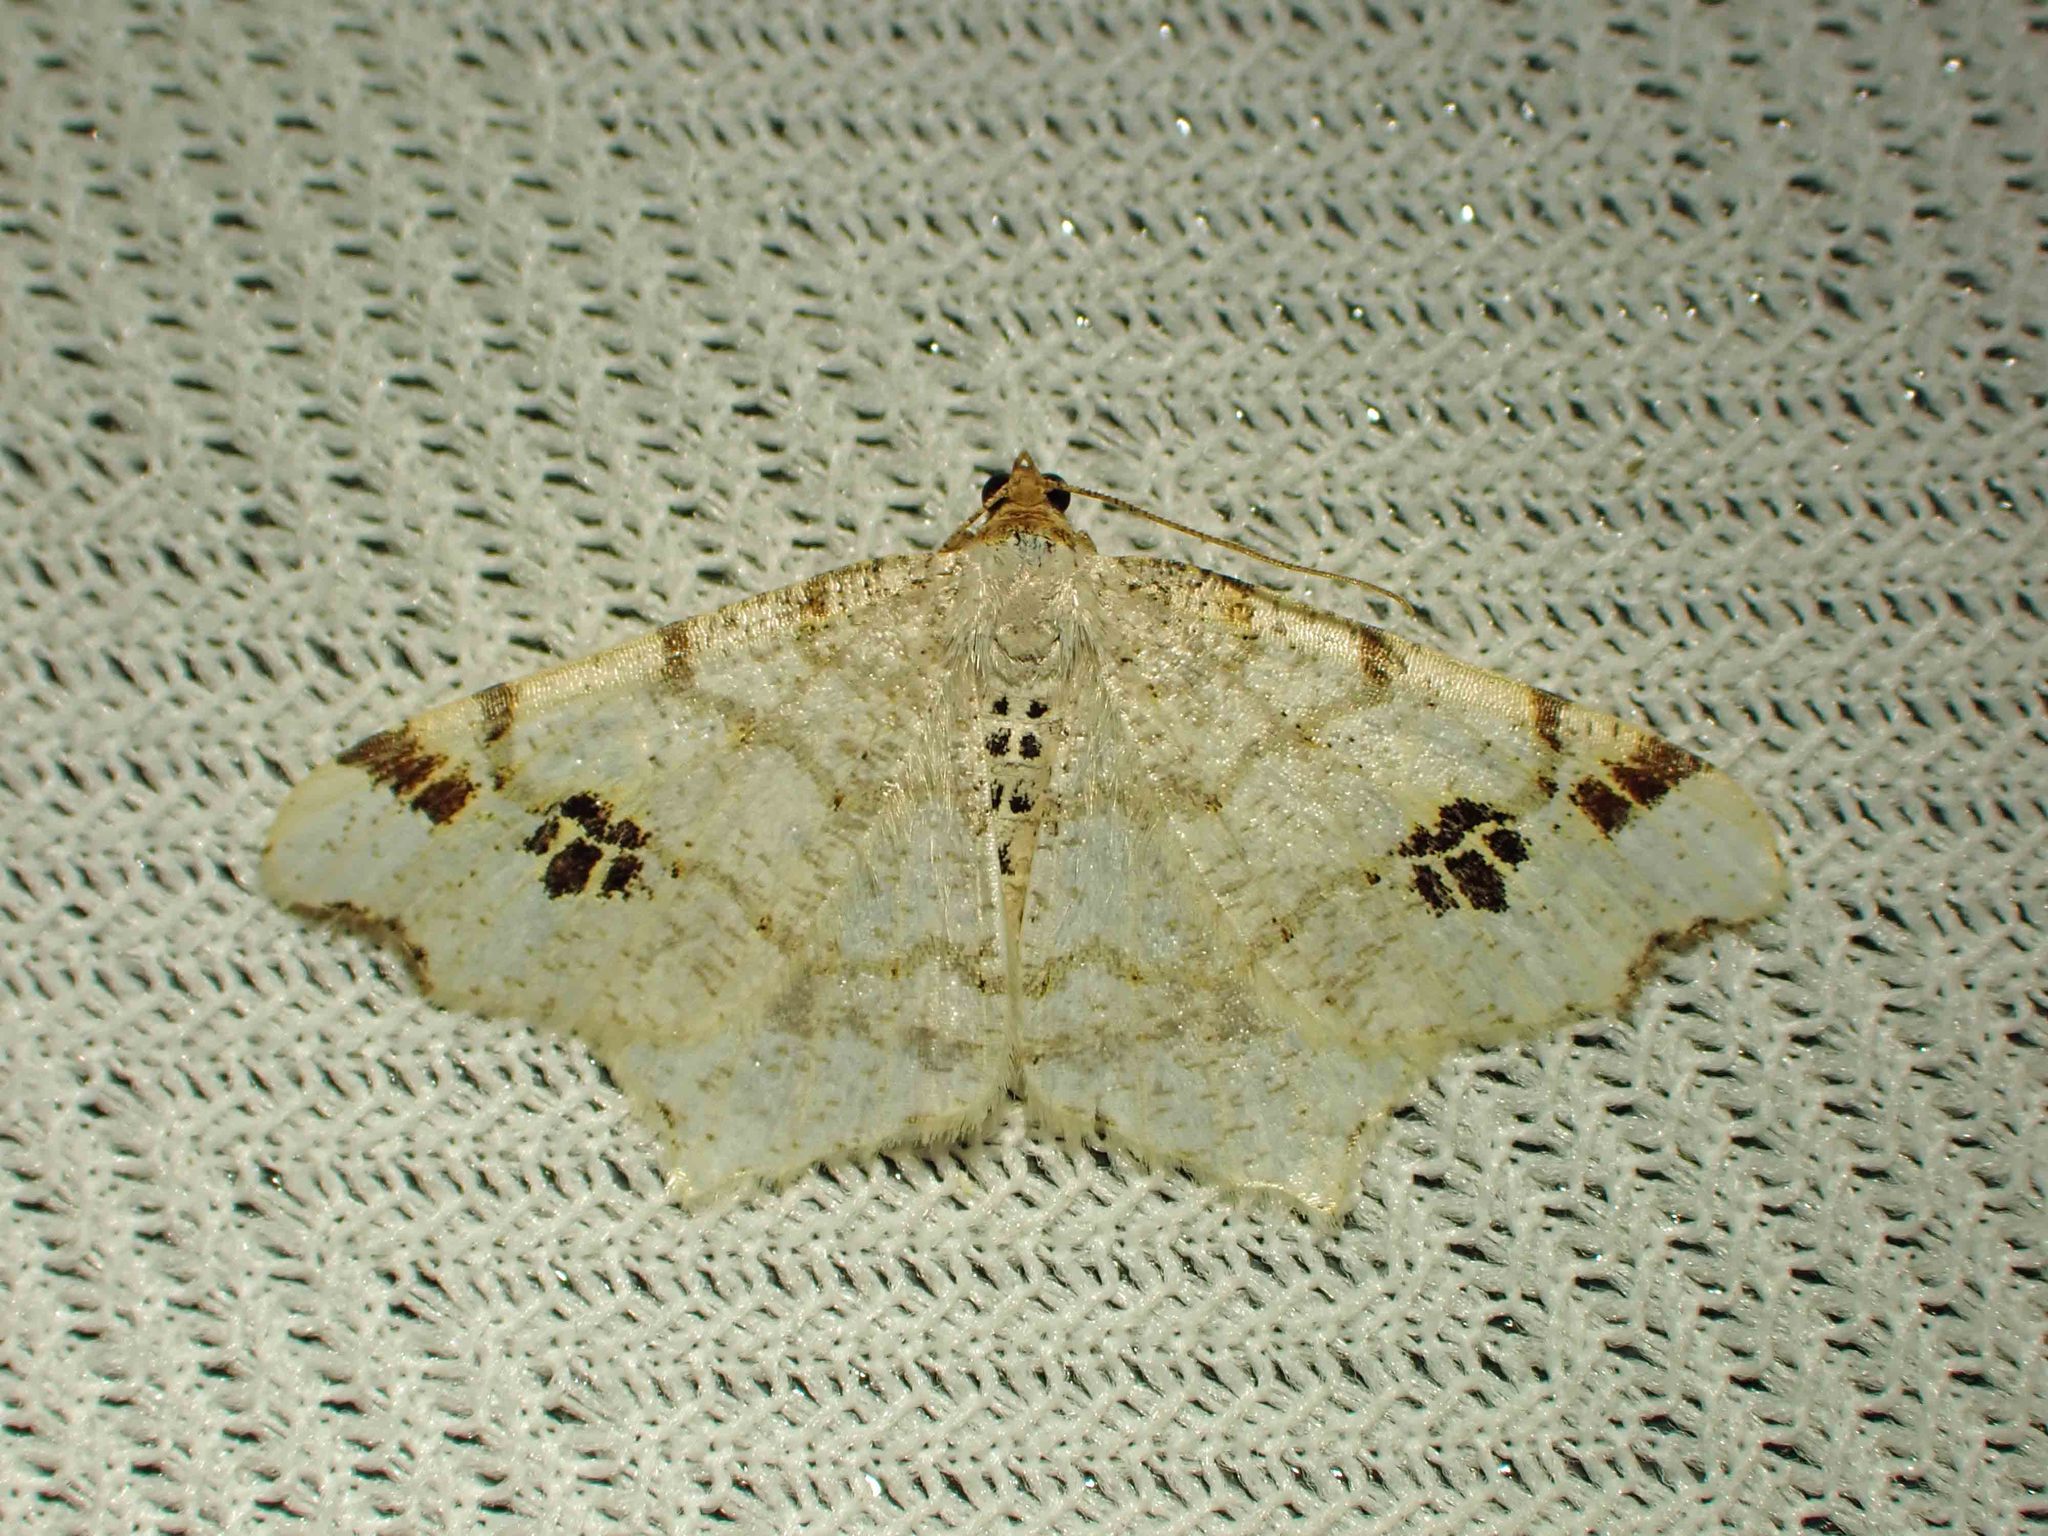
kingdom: Animalia
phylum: Arthropoda
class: Insecta
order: Lepidoptera
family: Geometridae
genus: Macaria
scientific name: Macaria ulsterata
